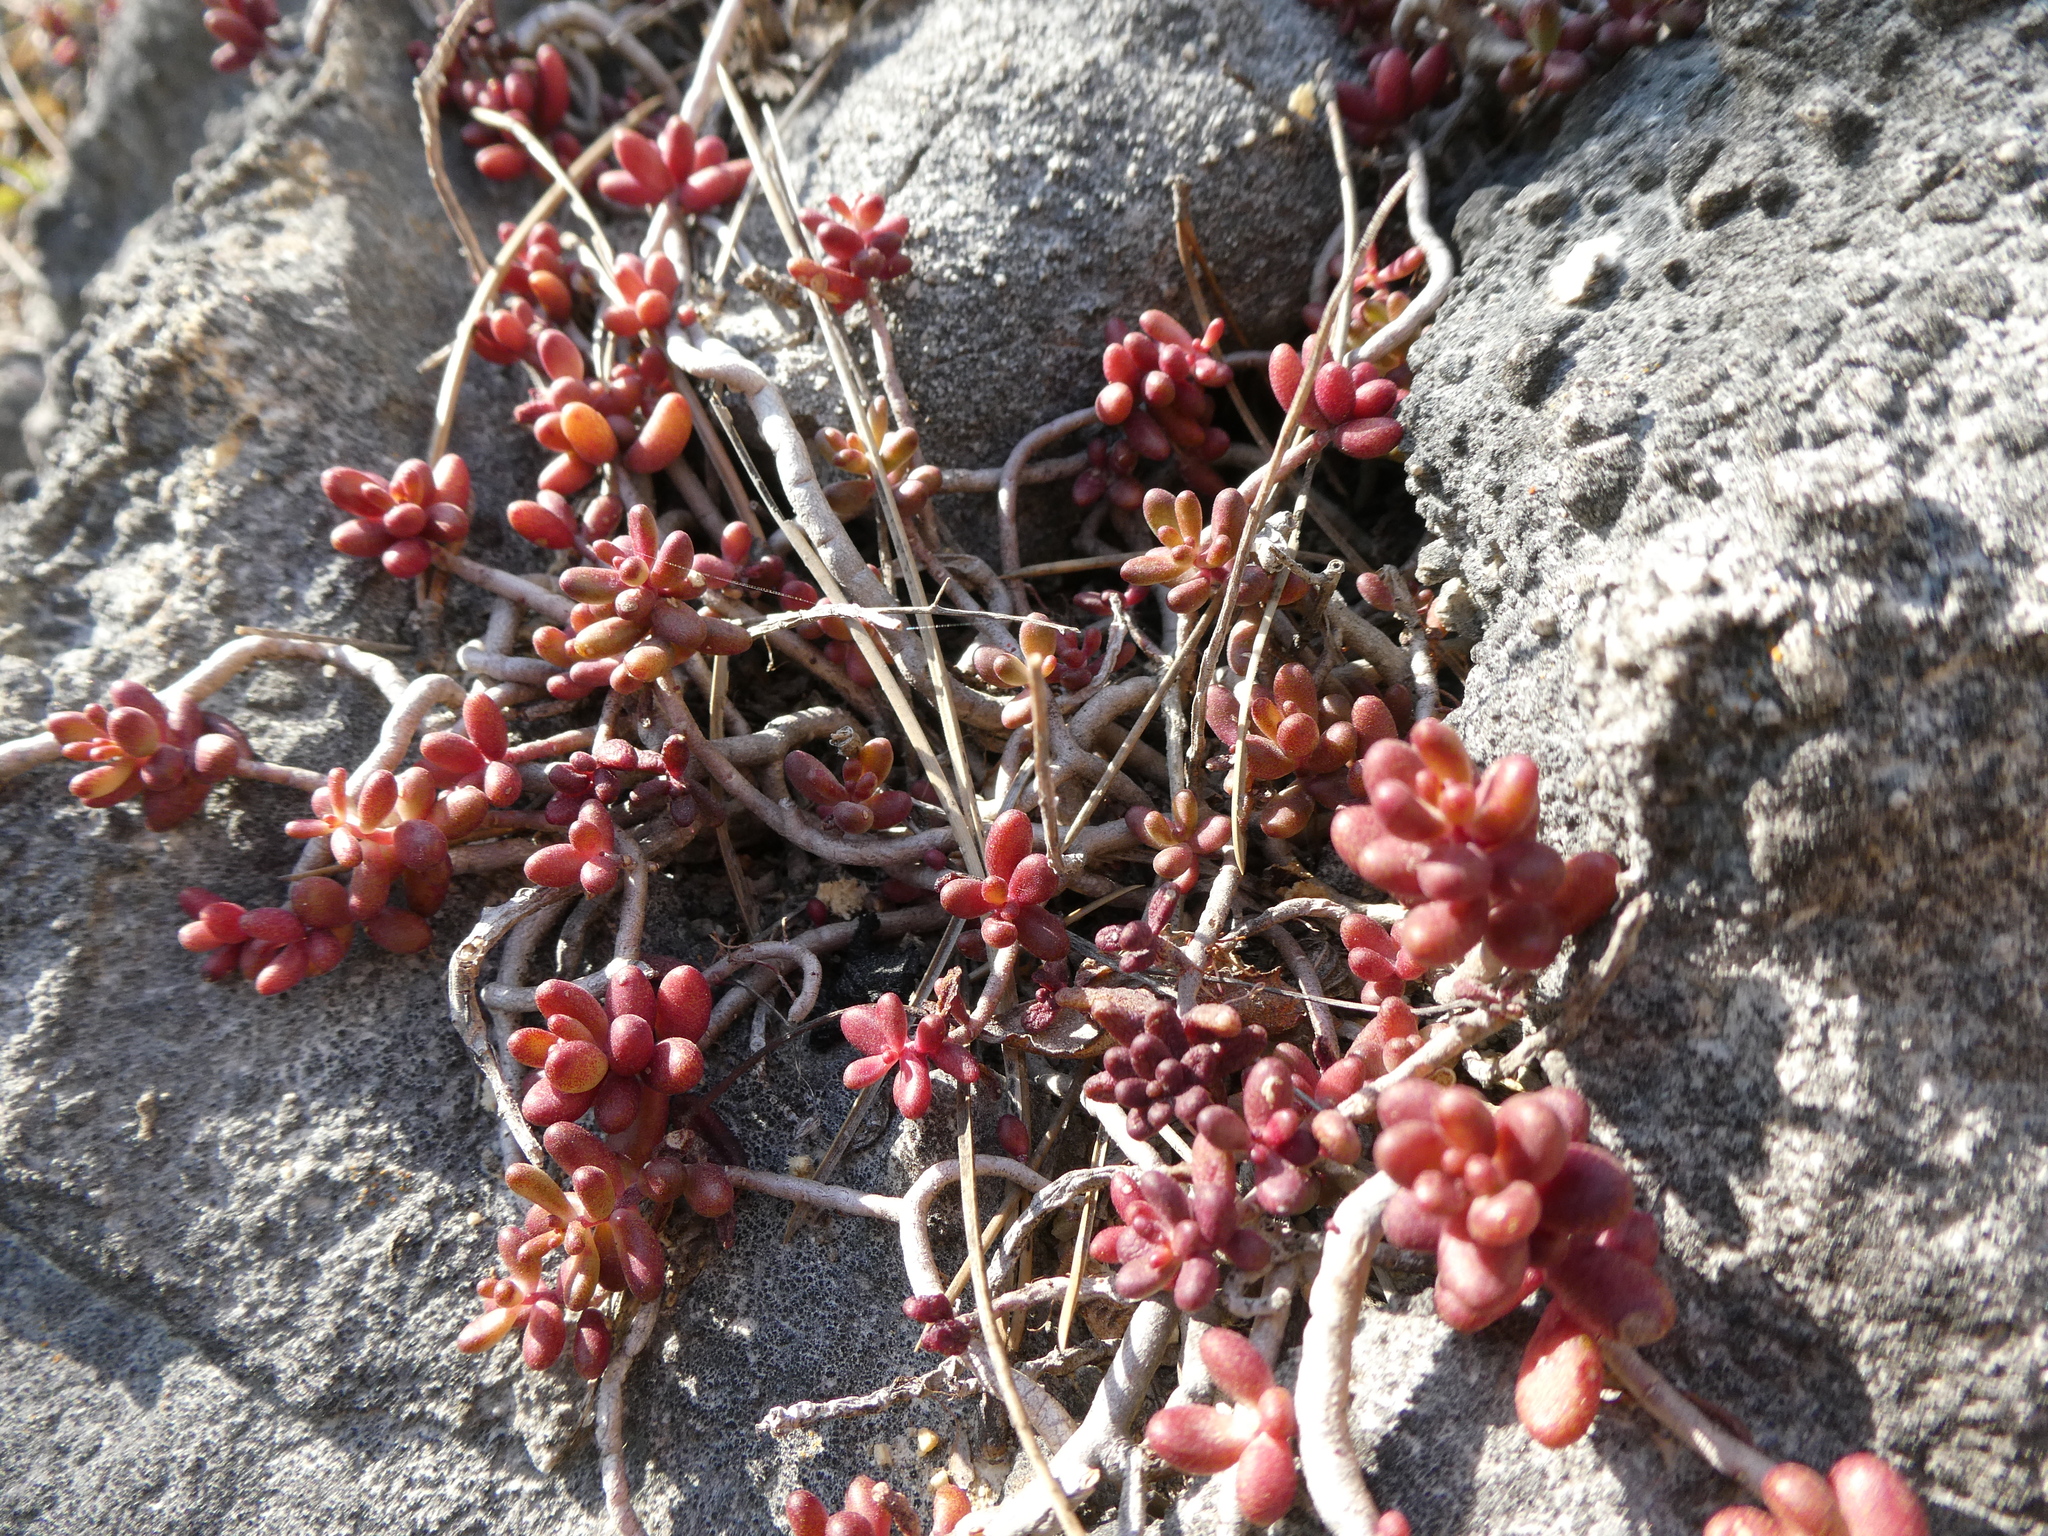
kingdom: Plantae
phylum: Tracheophyta
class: Magnoliopsida
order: Saxifragales
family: Crassulaceae
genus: Sedum
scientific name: Sedum album
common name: White stonecrop
